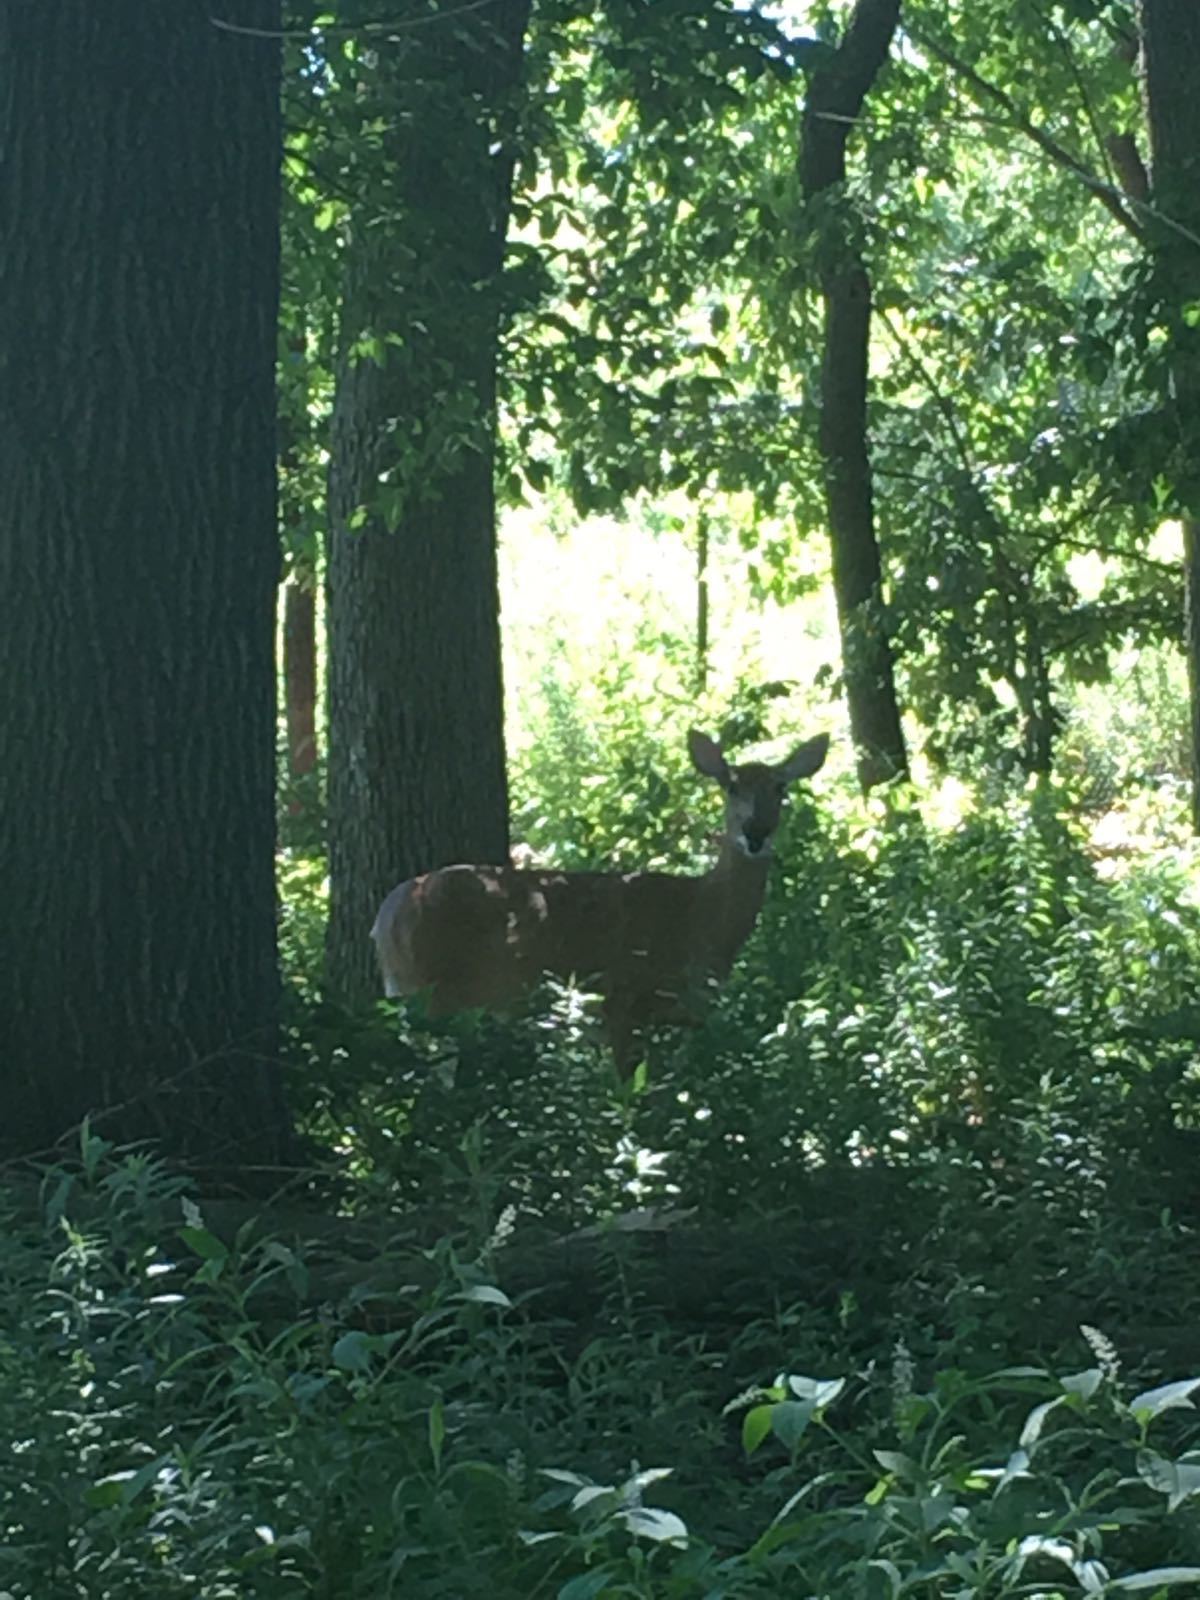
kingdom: Animalia
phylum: Chordata
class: Mammalia
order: Artiodactyla
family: Cervidae
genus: Odocoileus
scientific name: Odocoileus virginianus
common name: White-tailed deer
